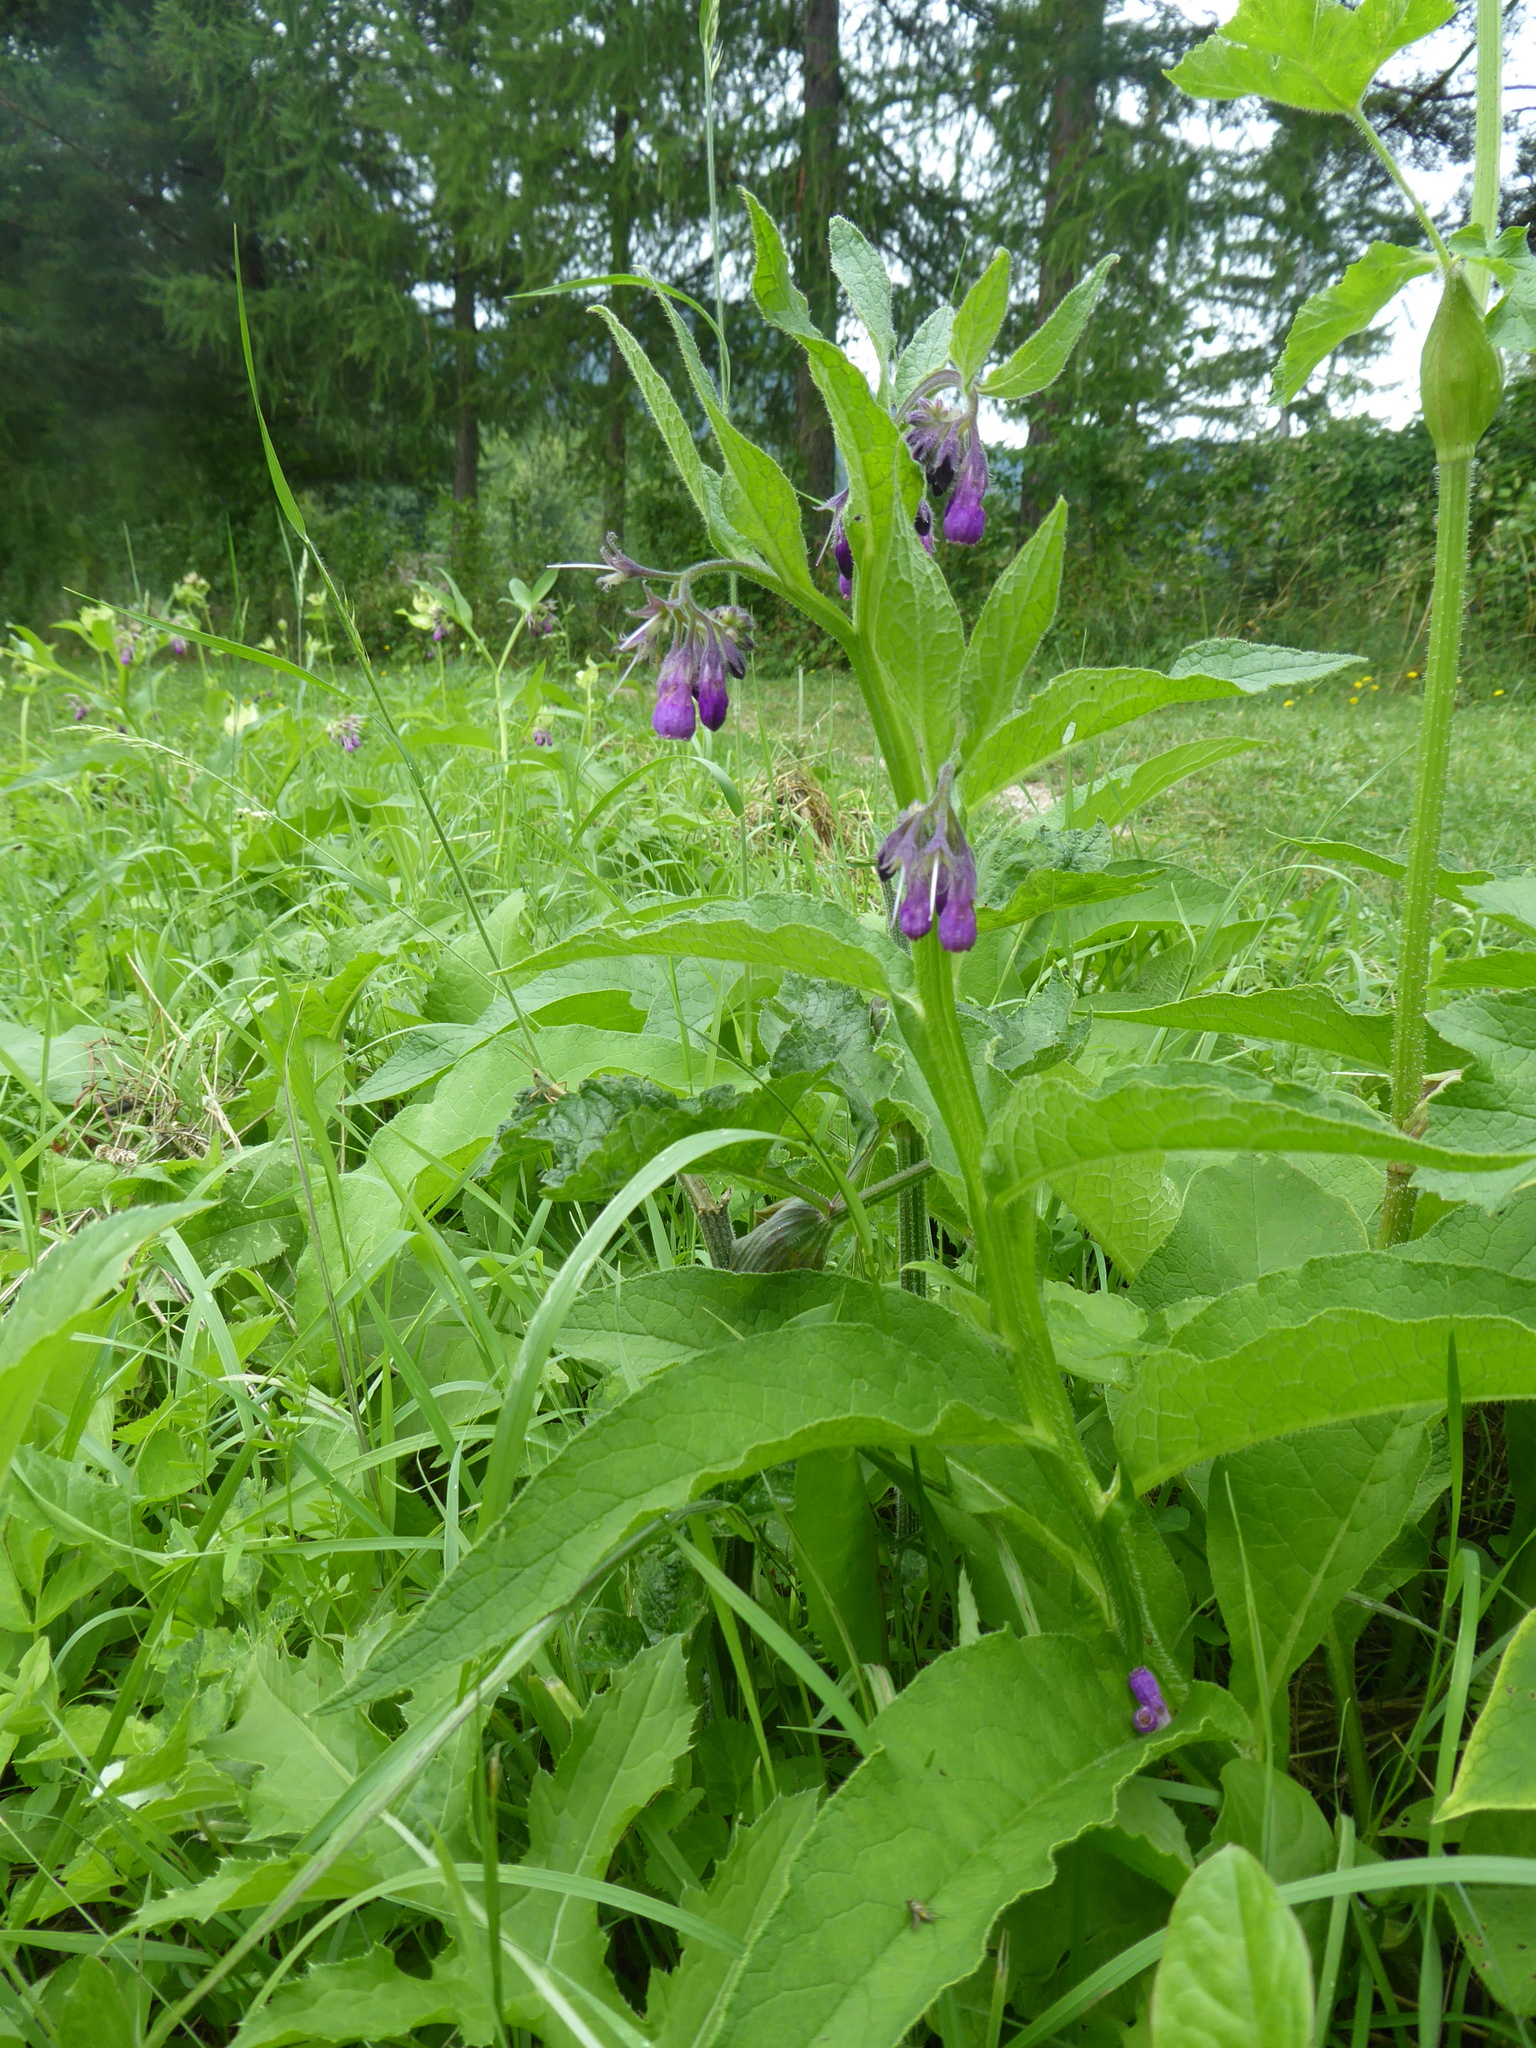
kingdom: Plantae
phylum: Tracheophyta
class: Magnoliopsida
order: Boraginales
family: Boraginaceae
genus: Symphytum
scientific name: Symphytum officinale
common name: Common comfrey
